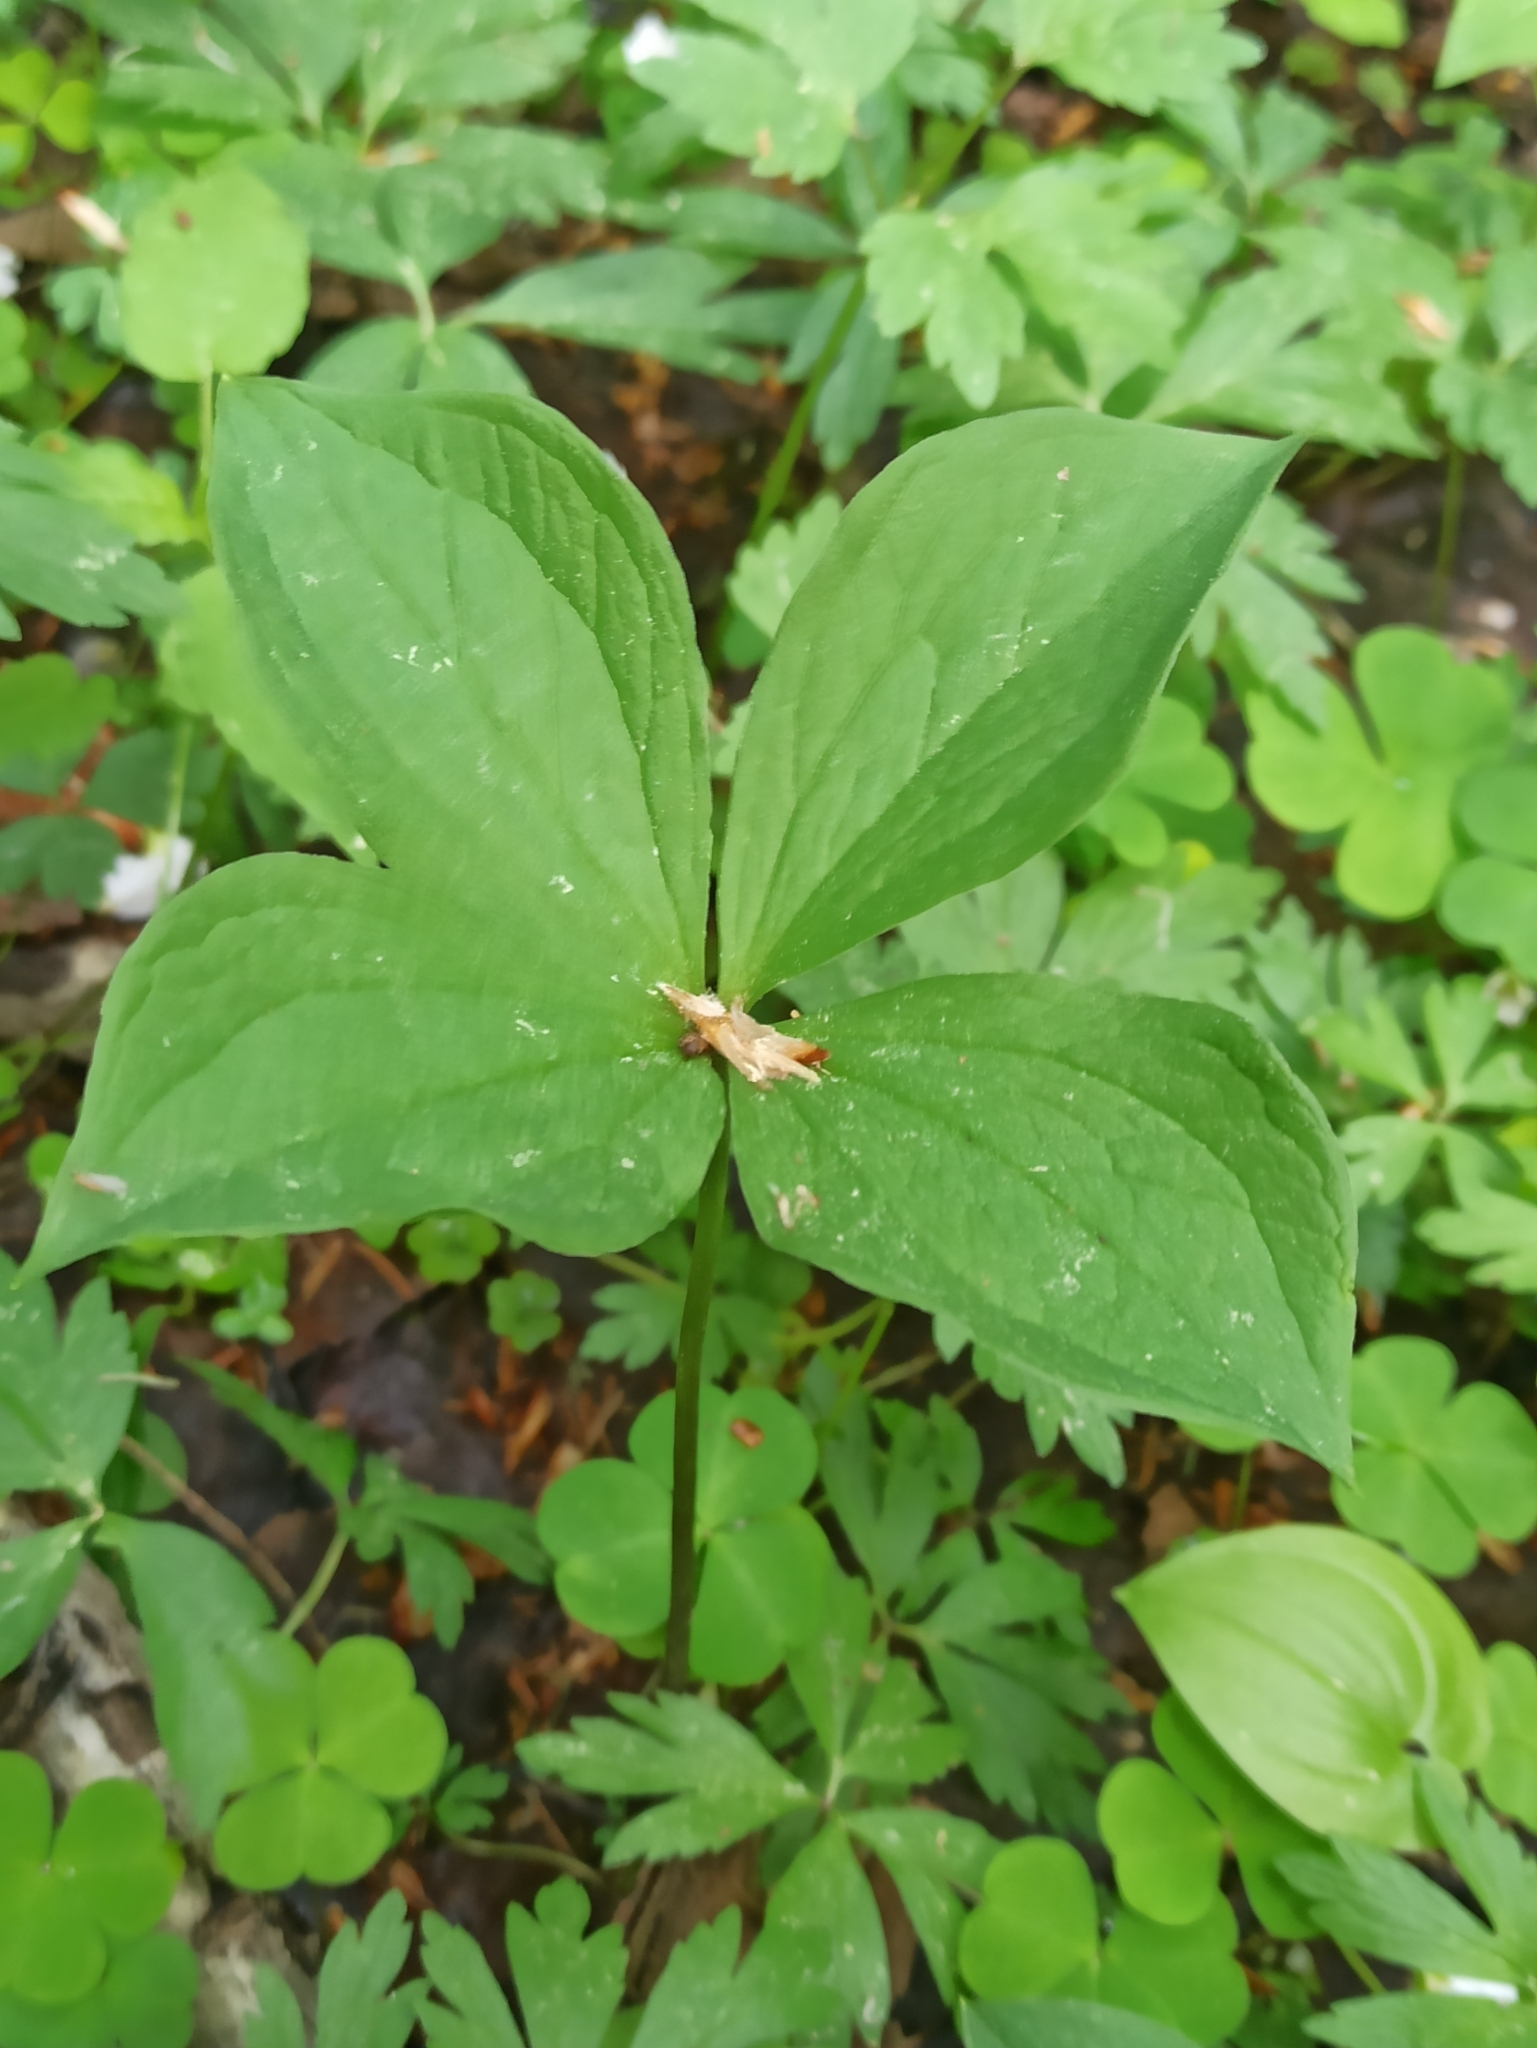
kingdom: Plantae
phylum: Tracheophyta
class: Liliopsida
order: Liliales
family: Melanthiaceae
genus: Paris
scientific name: Paris quadrifolia
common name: Herb-paris
